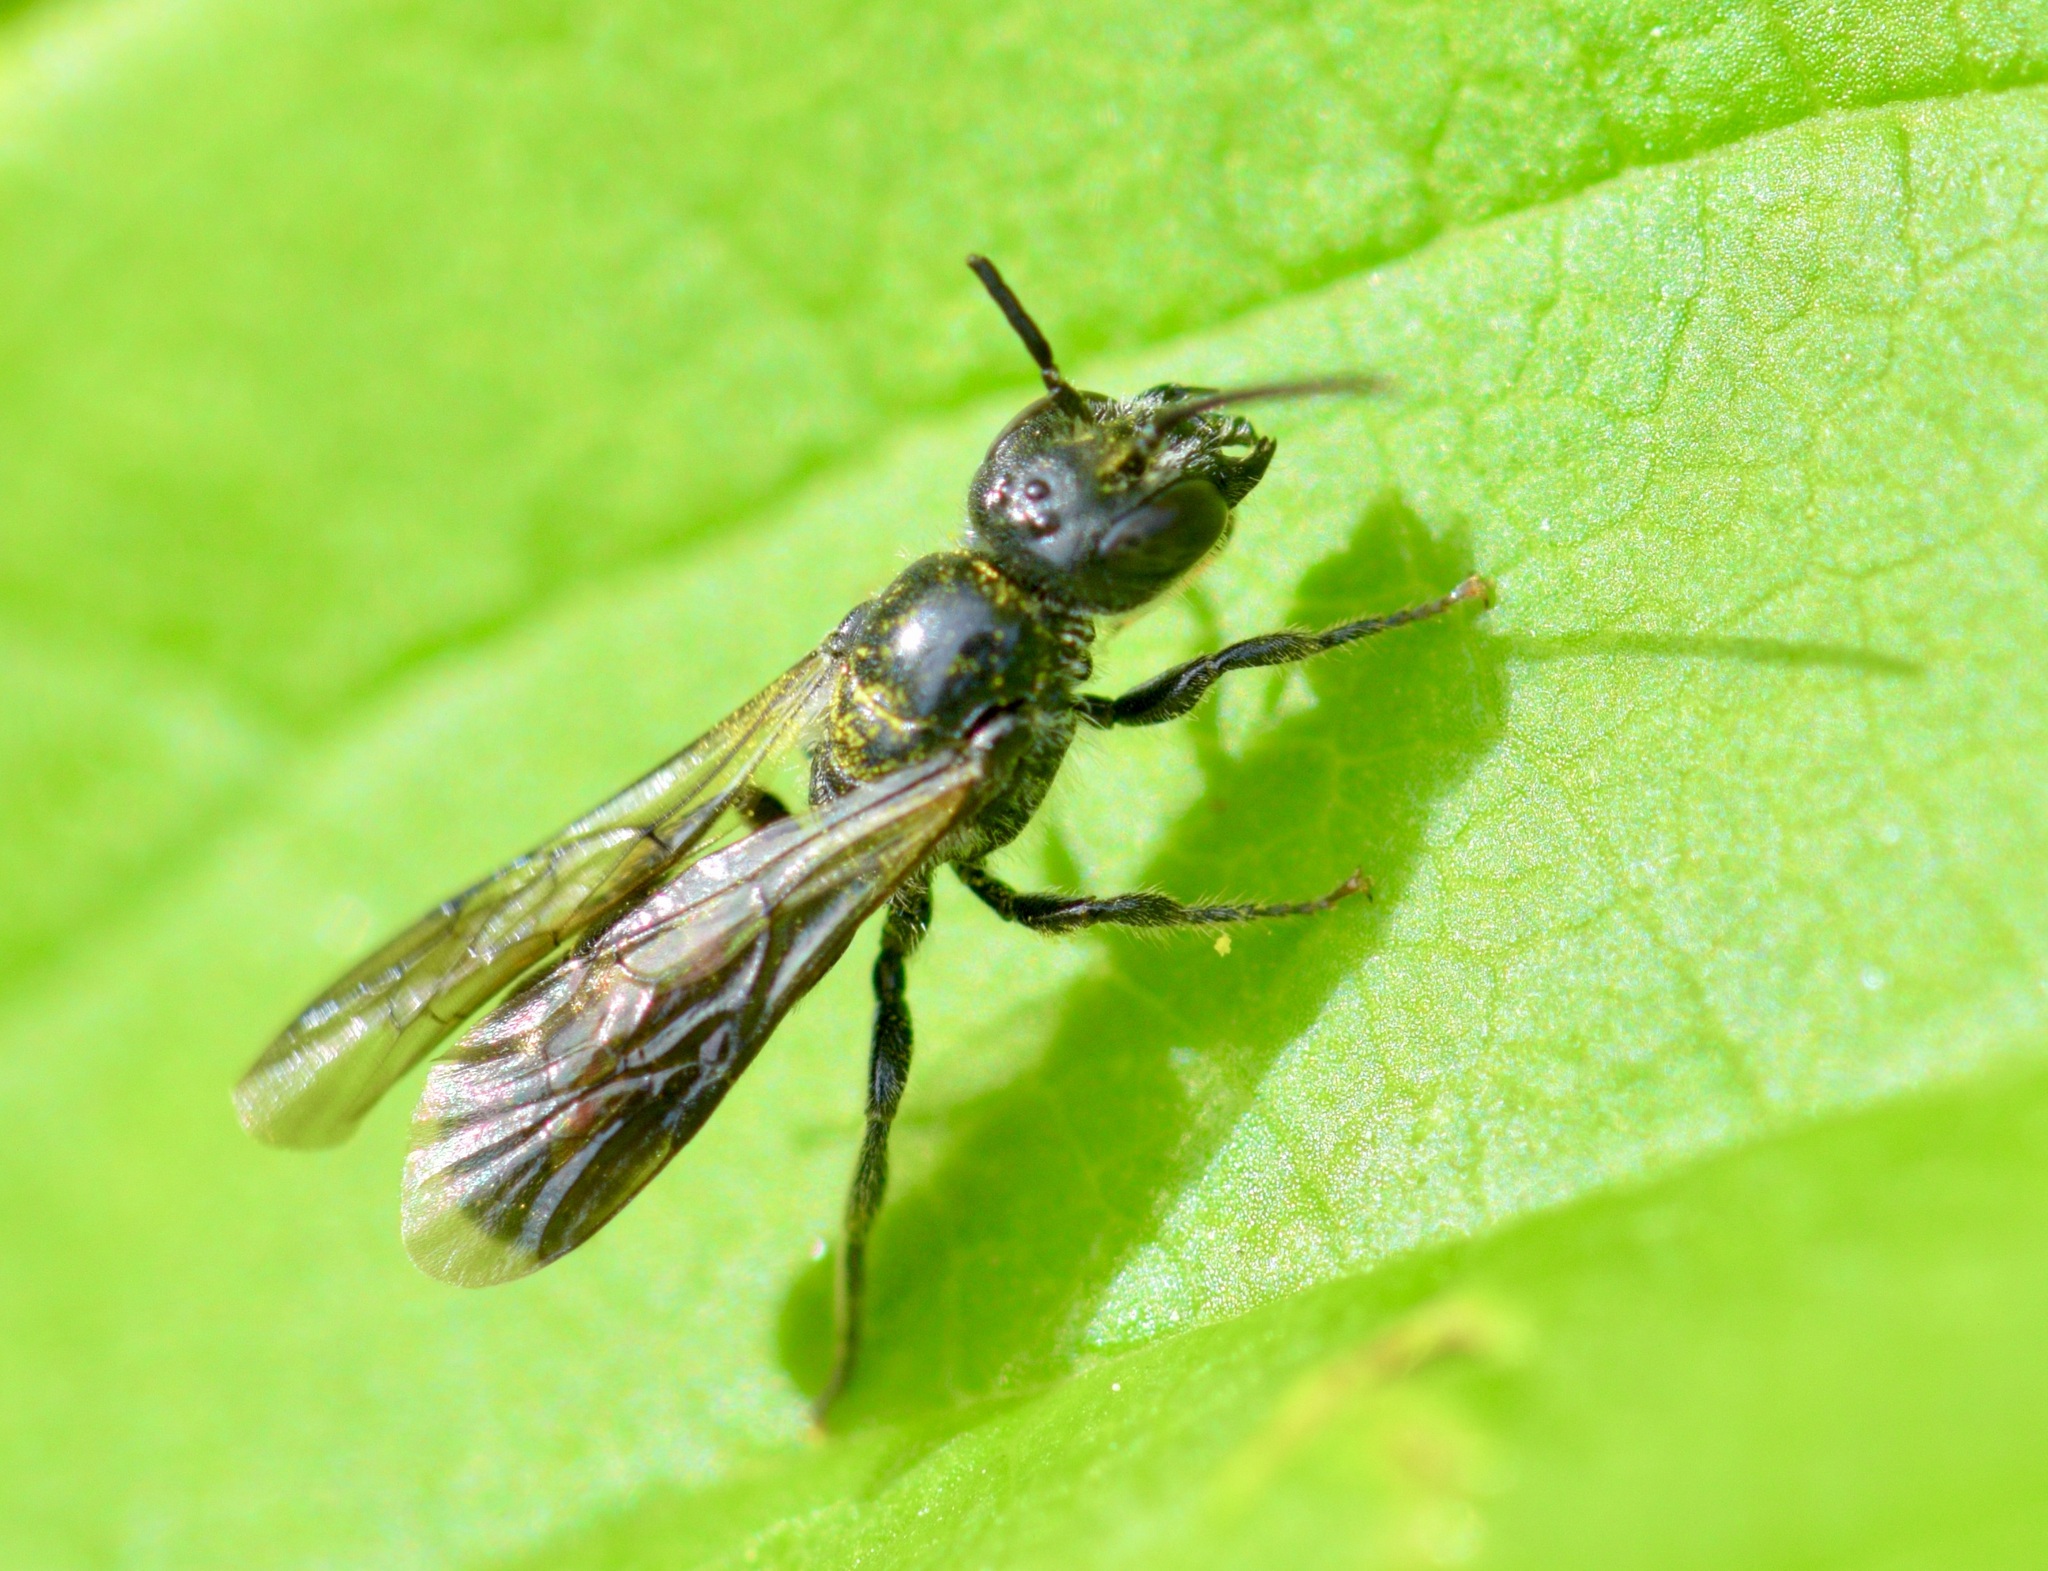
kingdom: Animalia
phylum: Arthropoda
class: Insecta
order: Hymenoptera
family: Megachilidae
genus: Chelostoma
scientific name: Chelostoma philadelphi
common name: Mock-orange scissor bee
